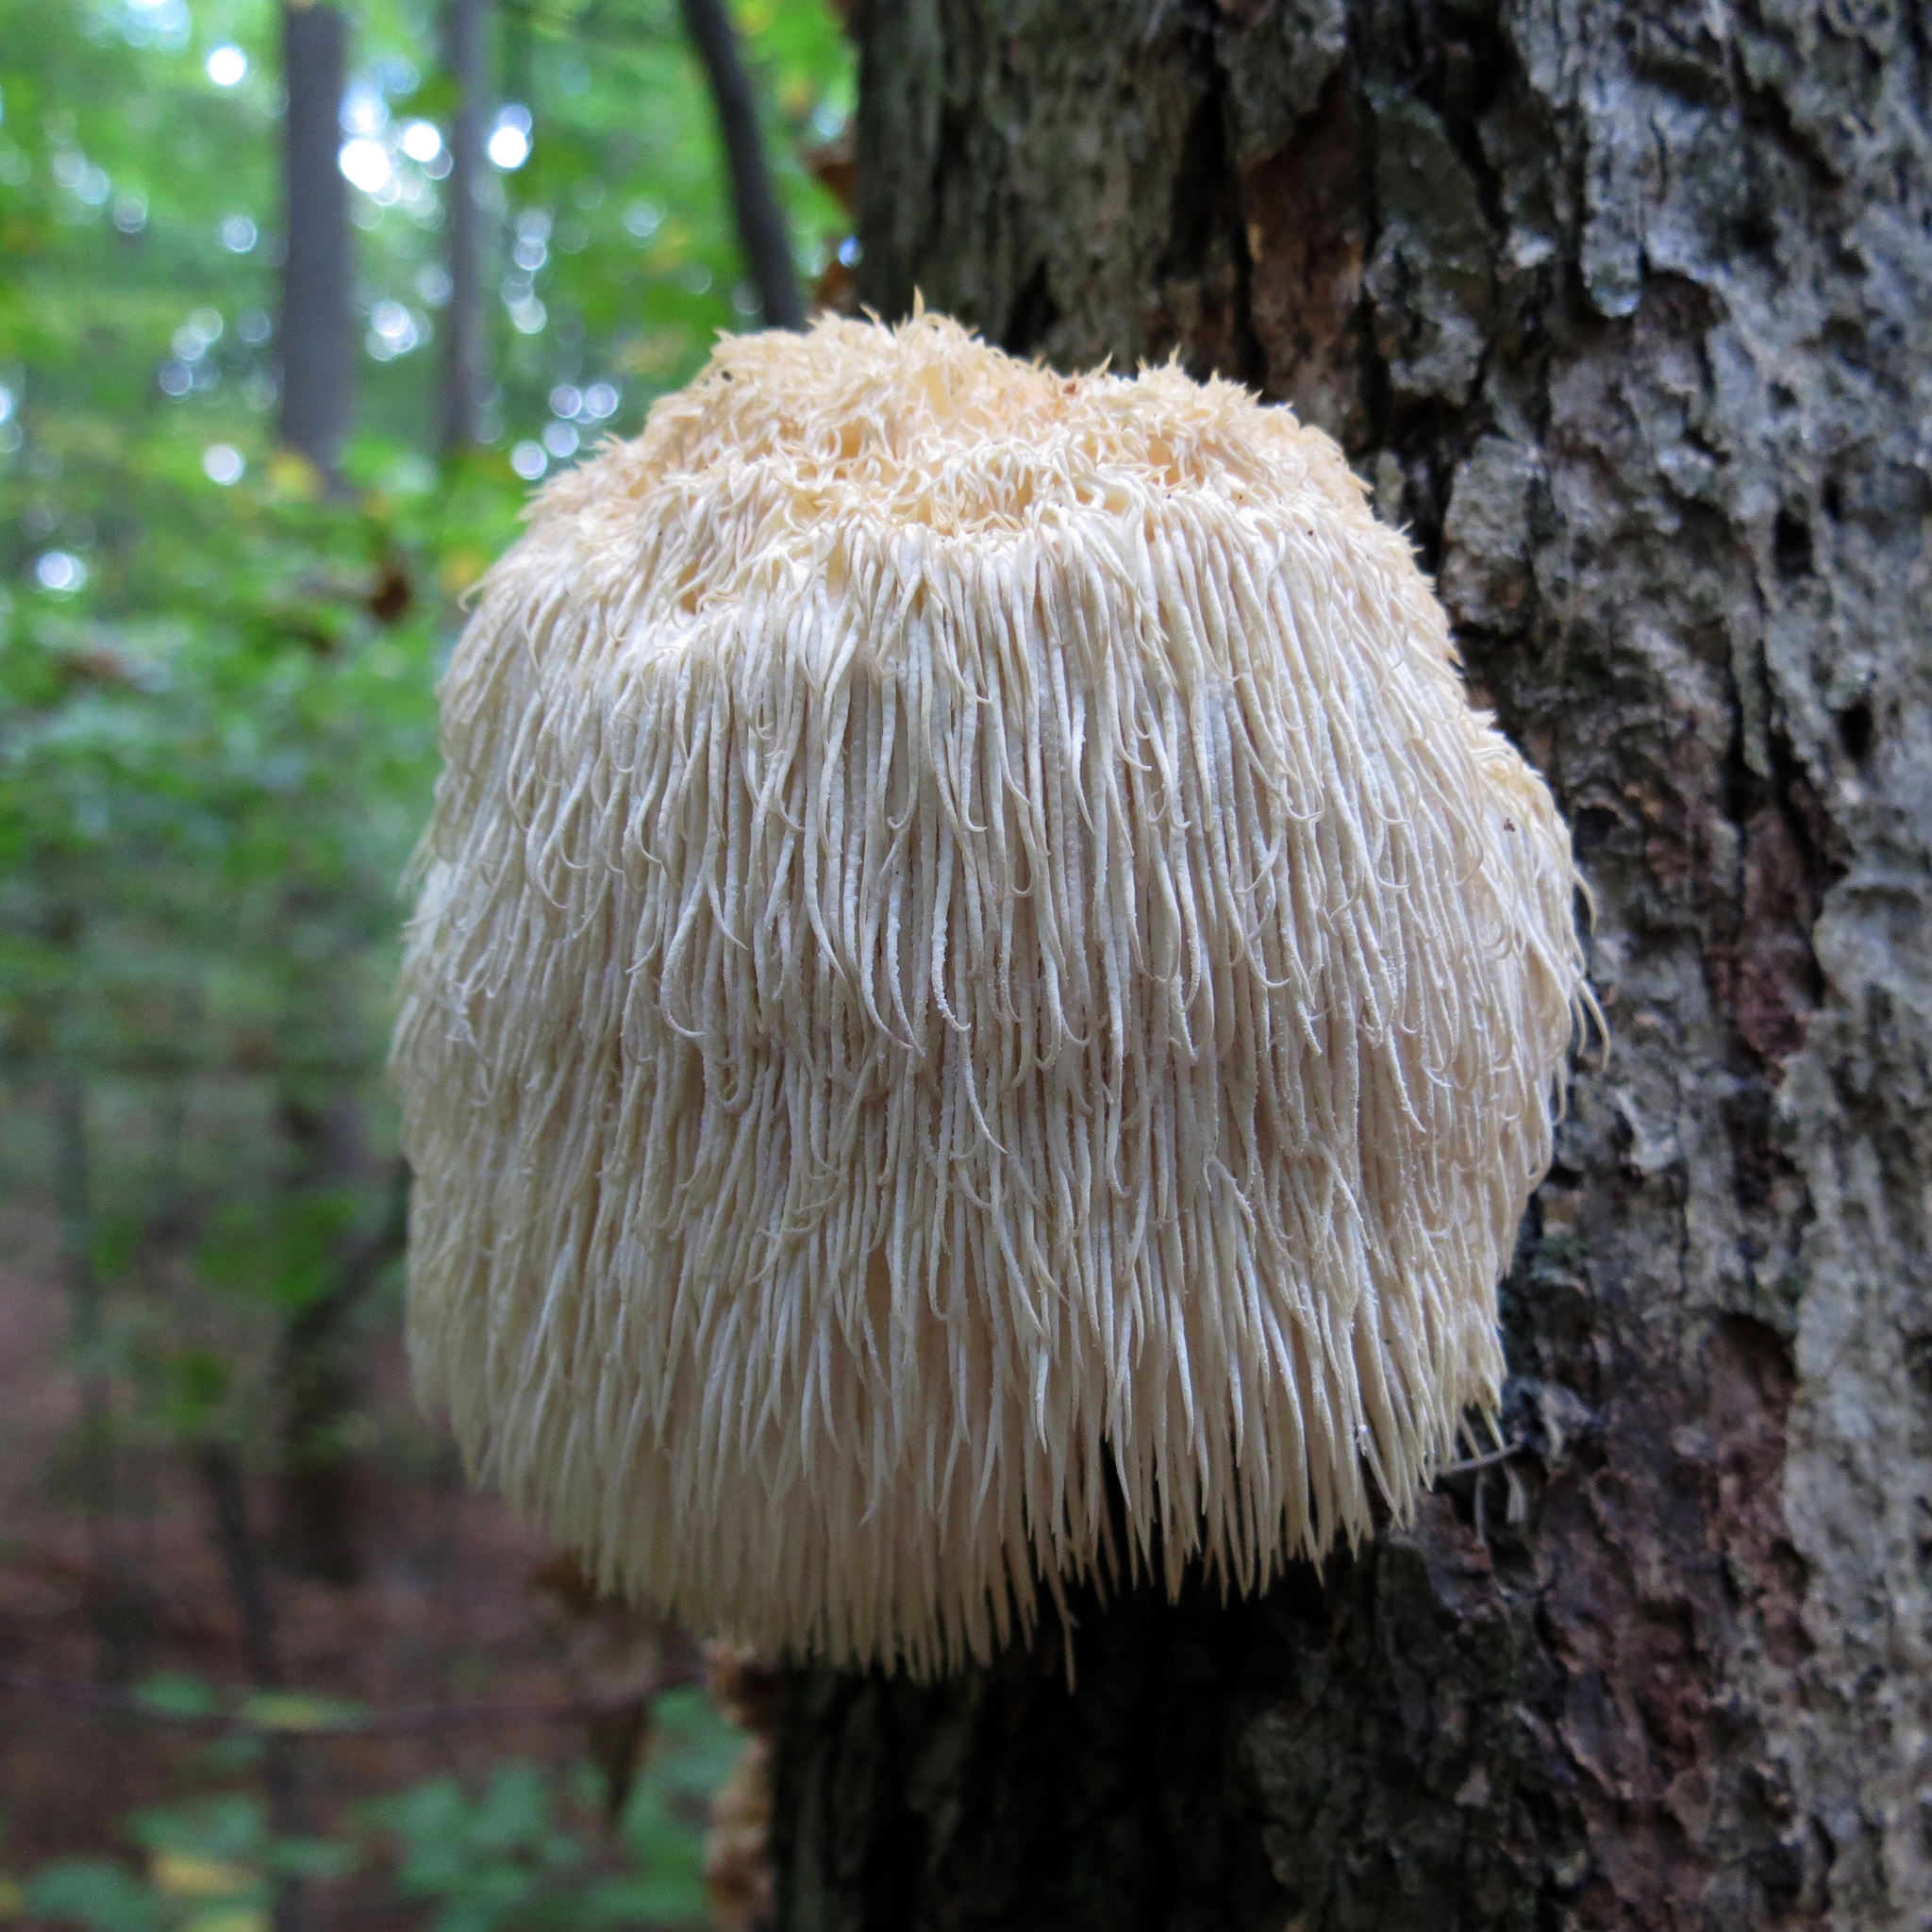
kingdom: Fungi
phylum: Basidiomycota
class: Agaricomycetes
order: Russulales
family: Hericiaceae
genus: Hericium
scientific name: Hericium erinaceus
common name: Bearded tooth
